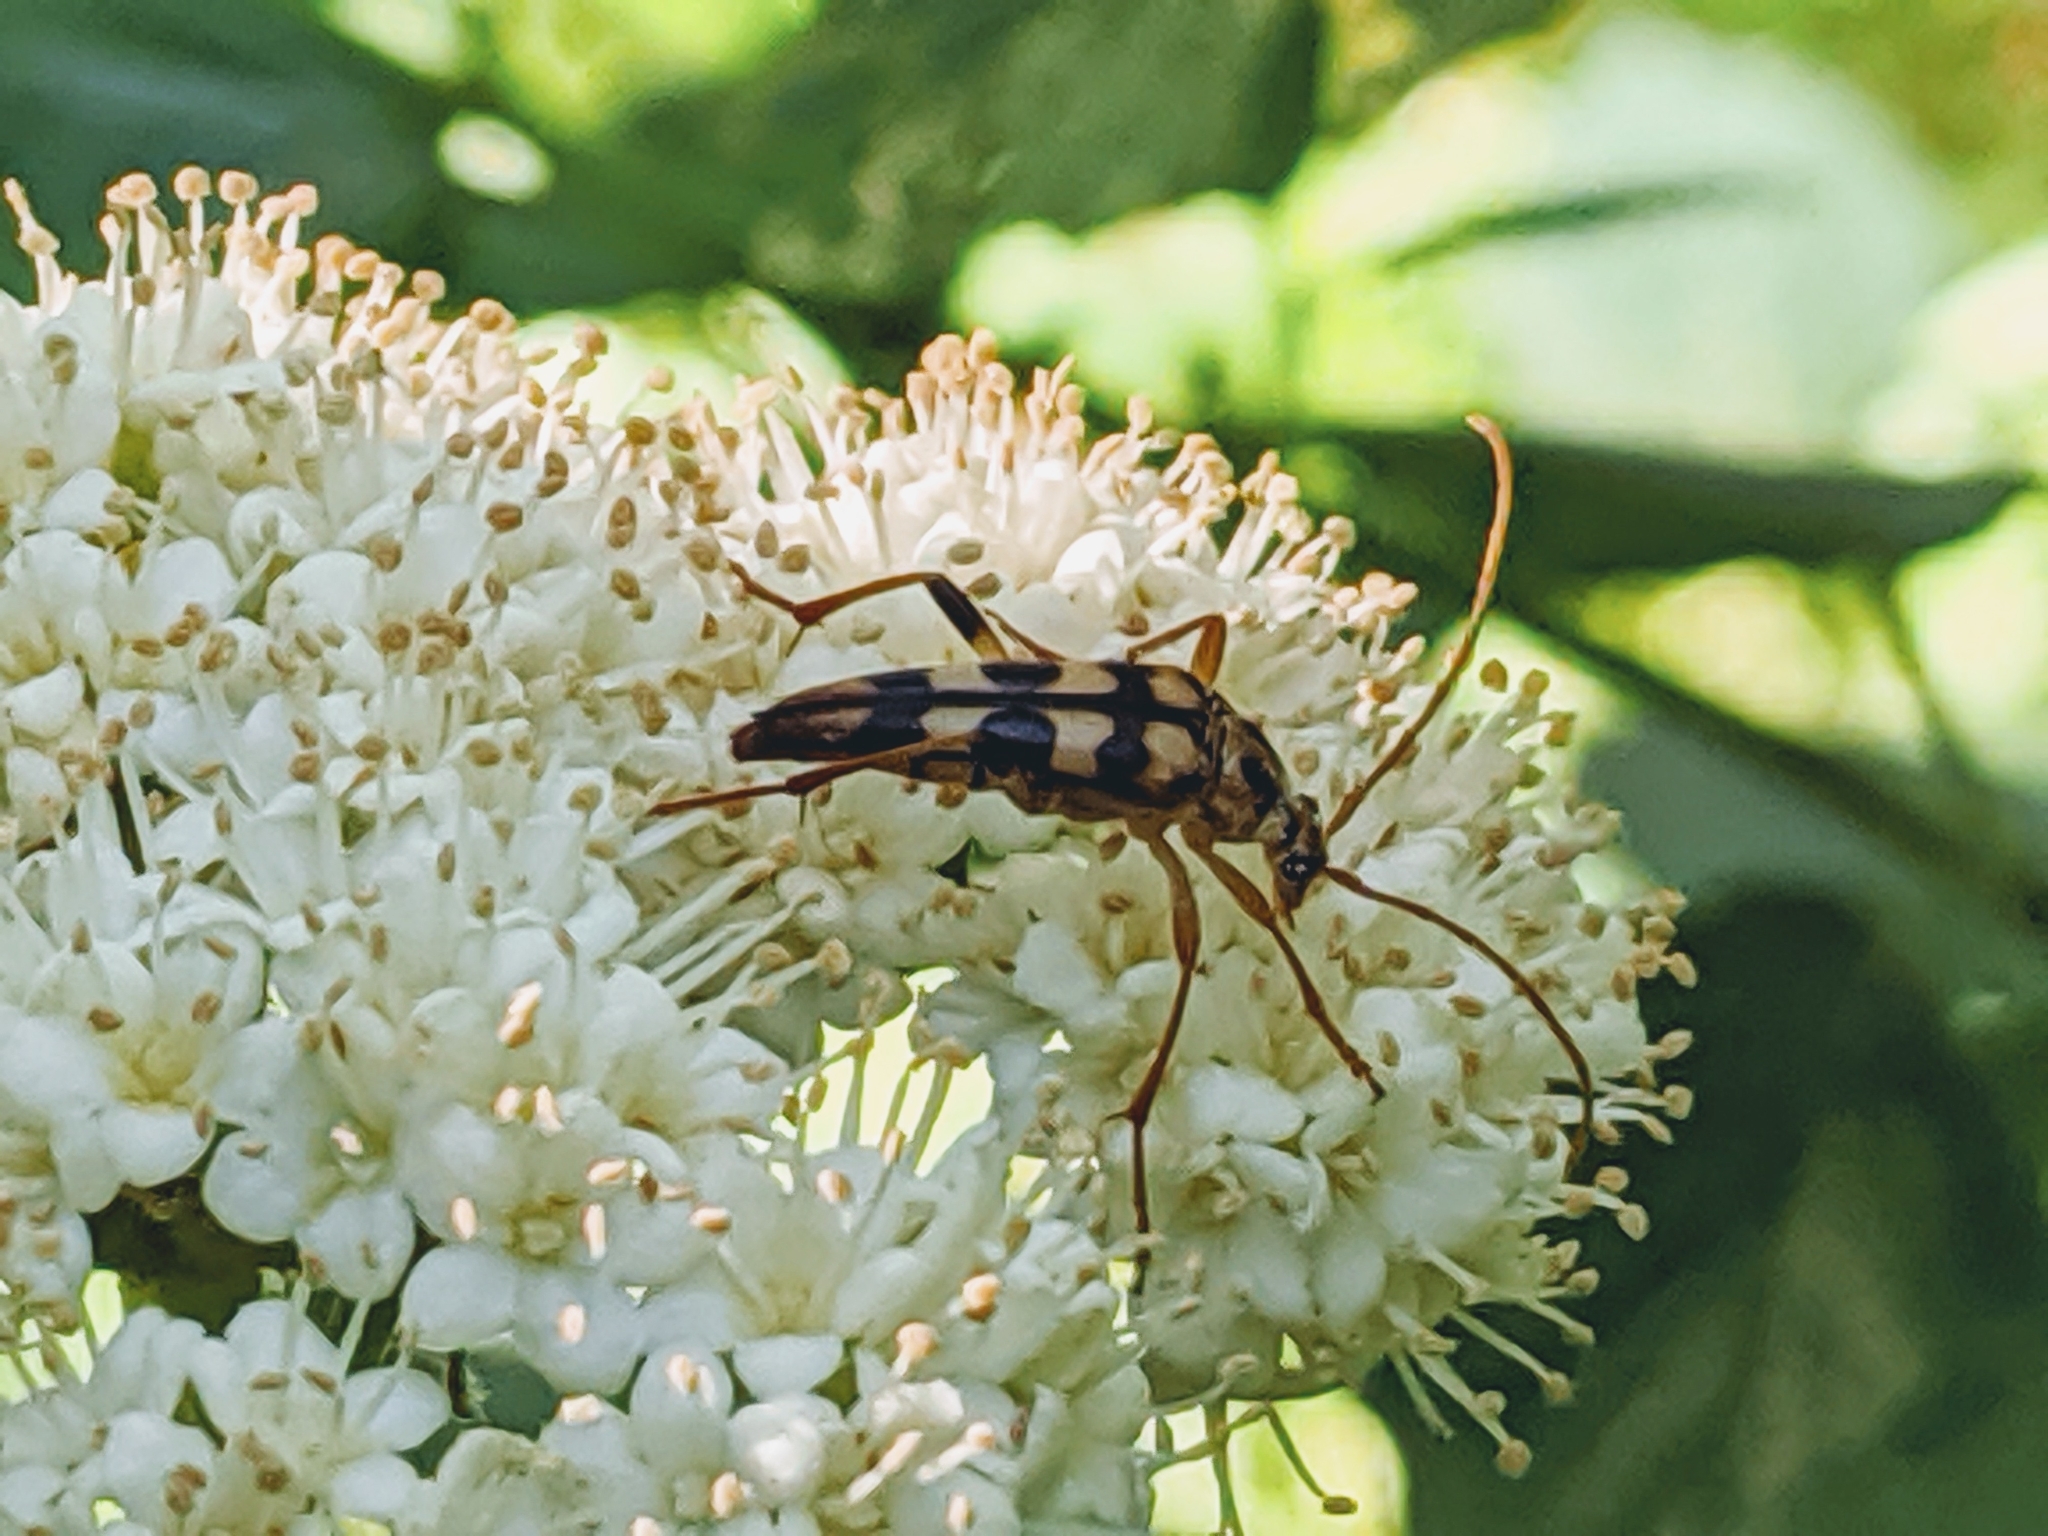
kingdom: Animalia
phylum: Arthropoda
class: Insecta
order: Coleoptera
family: Cerambycidae
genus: Strangalia
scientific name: Strangalia luteicornis
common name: Yellow-horned flower longhorn beetle
